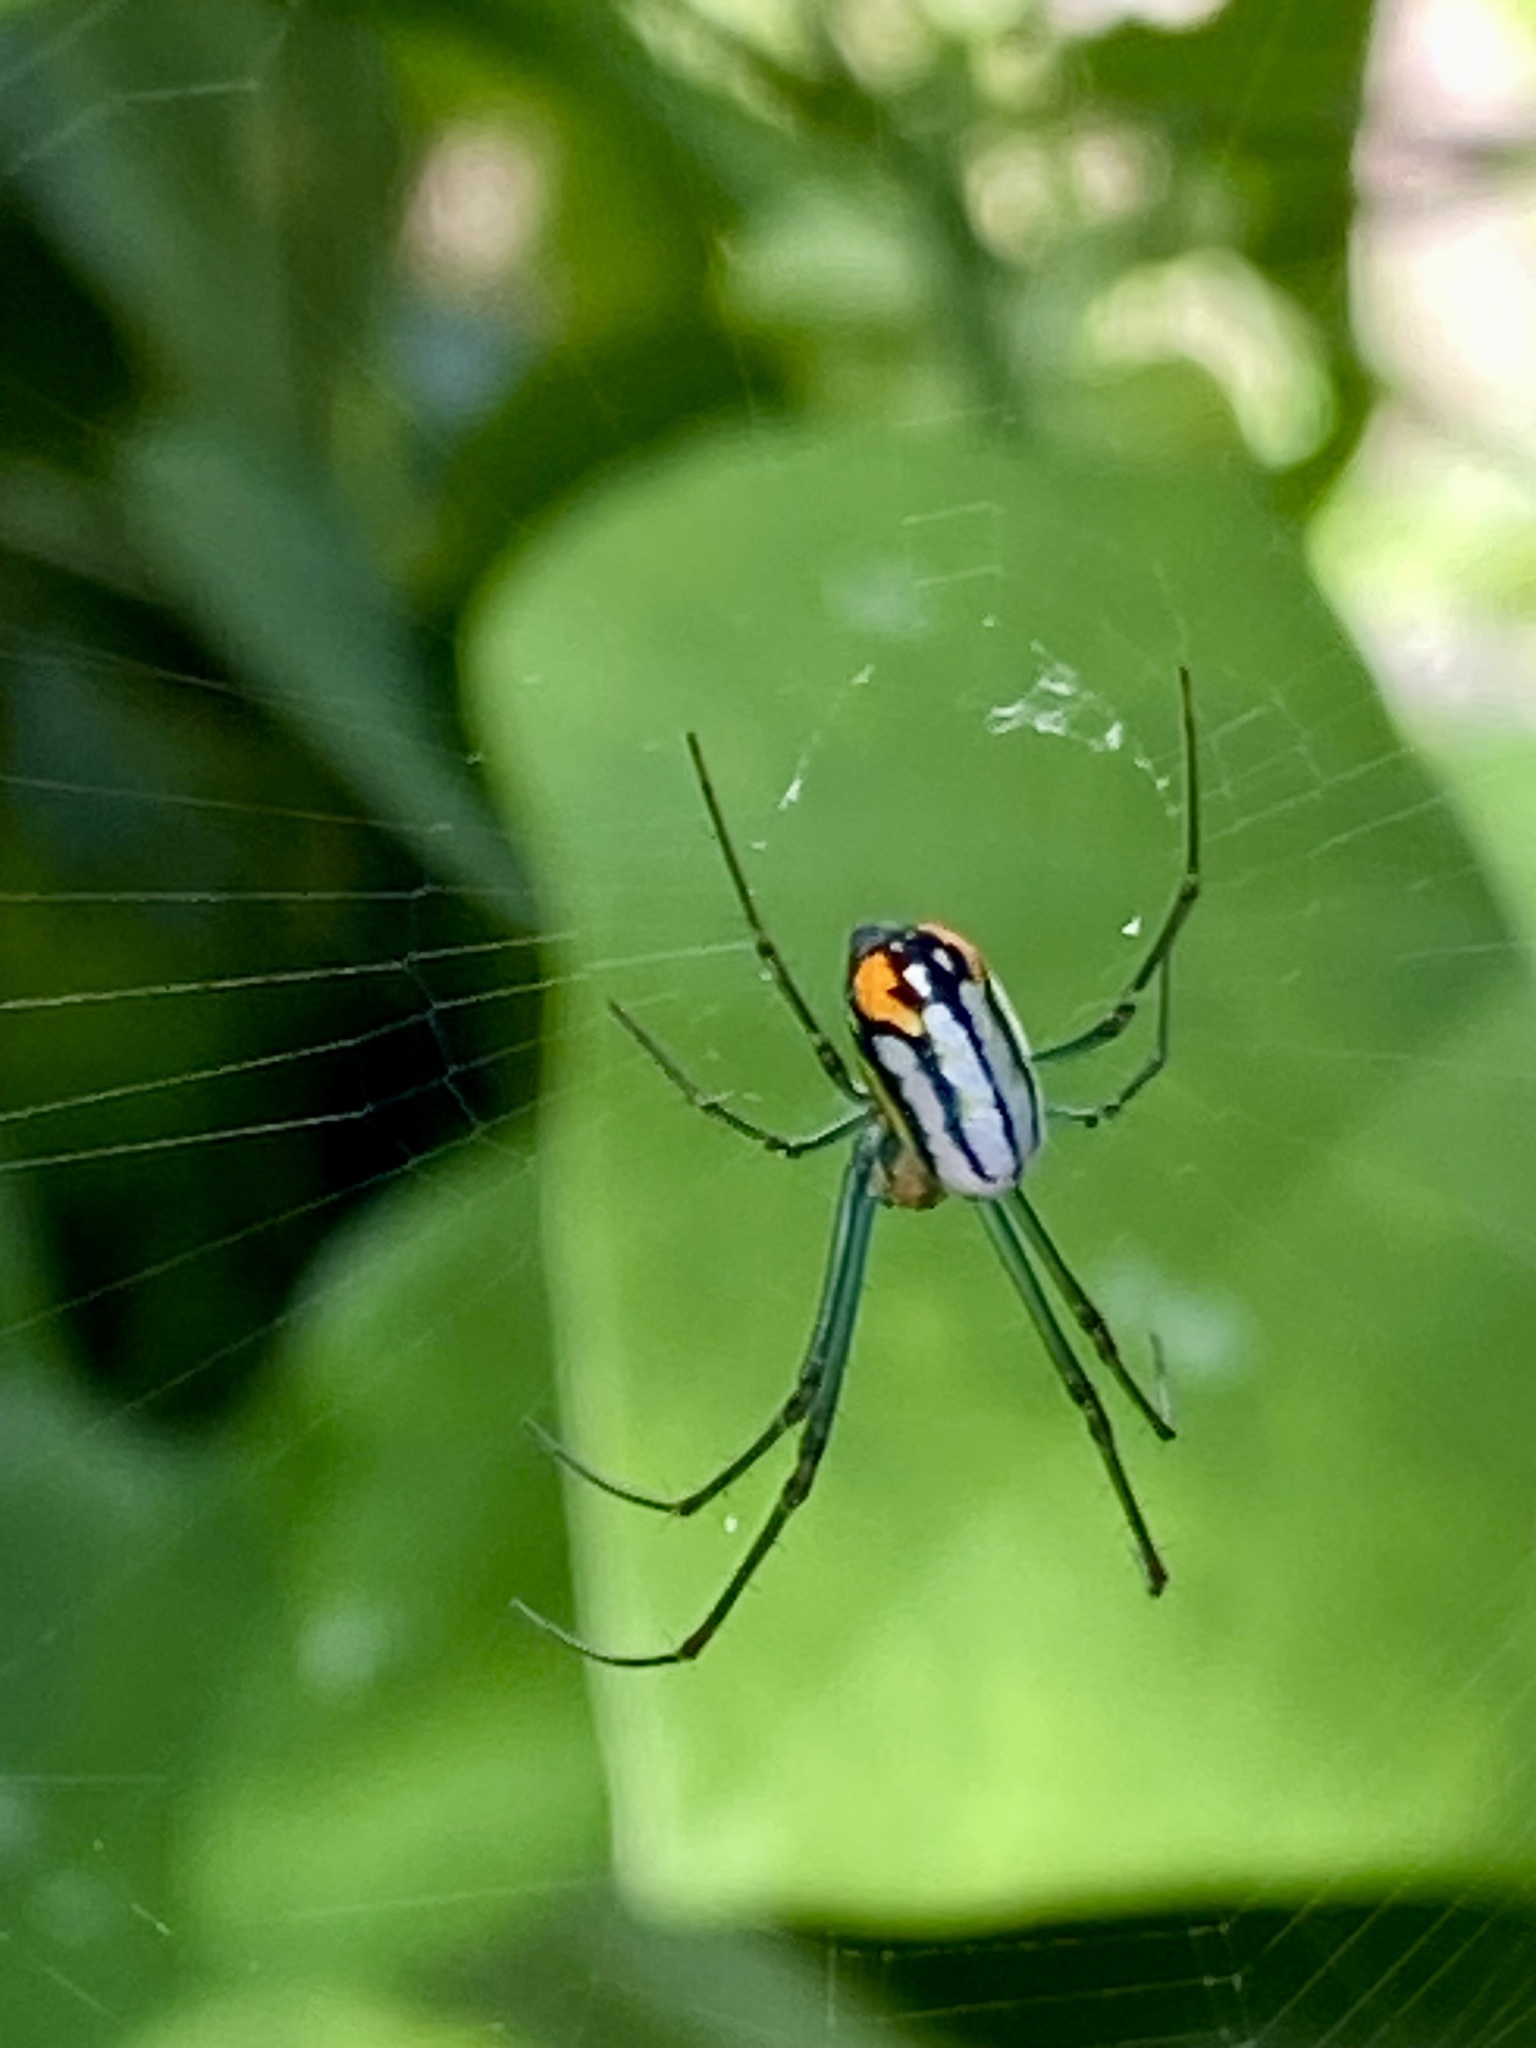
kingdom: Animalia
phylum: Arthropoda
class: Arachnida
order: Araneae
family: Tetragnathidae
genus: Leucauge
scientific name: Leucauge argyrobapta
